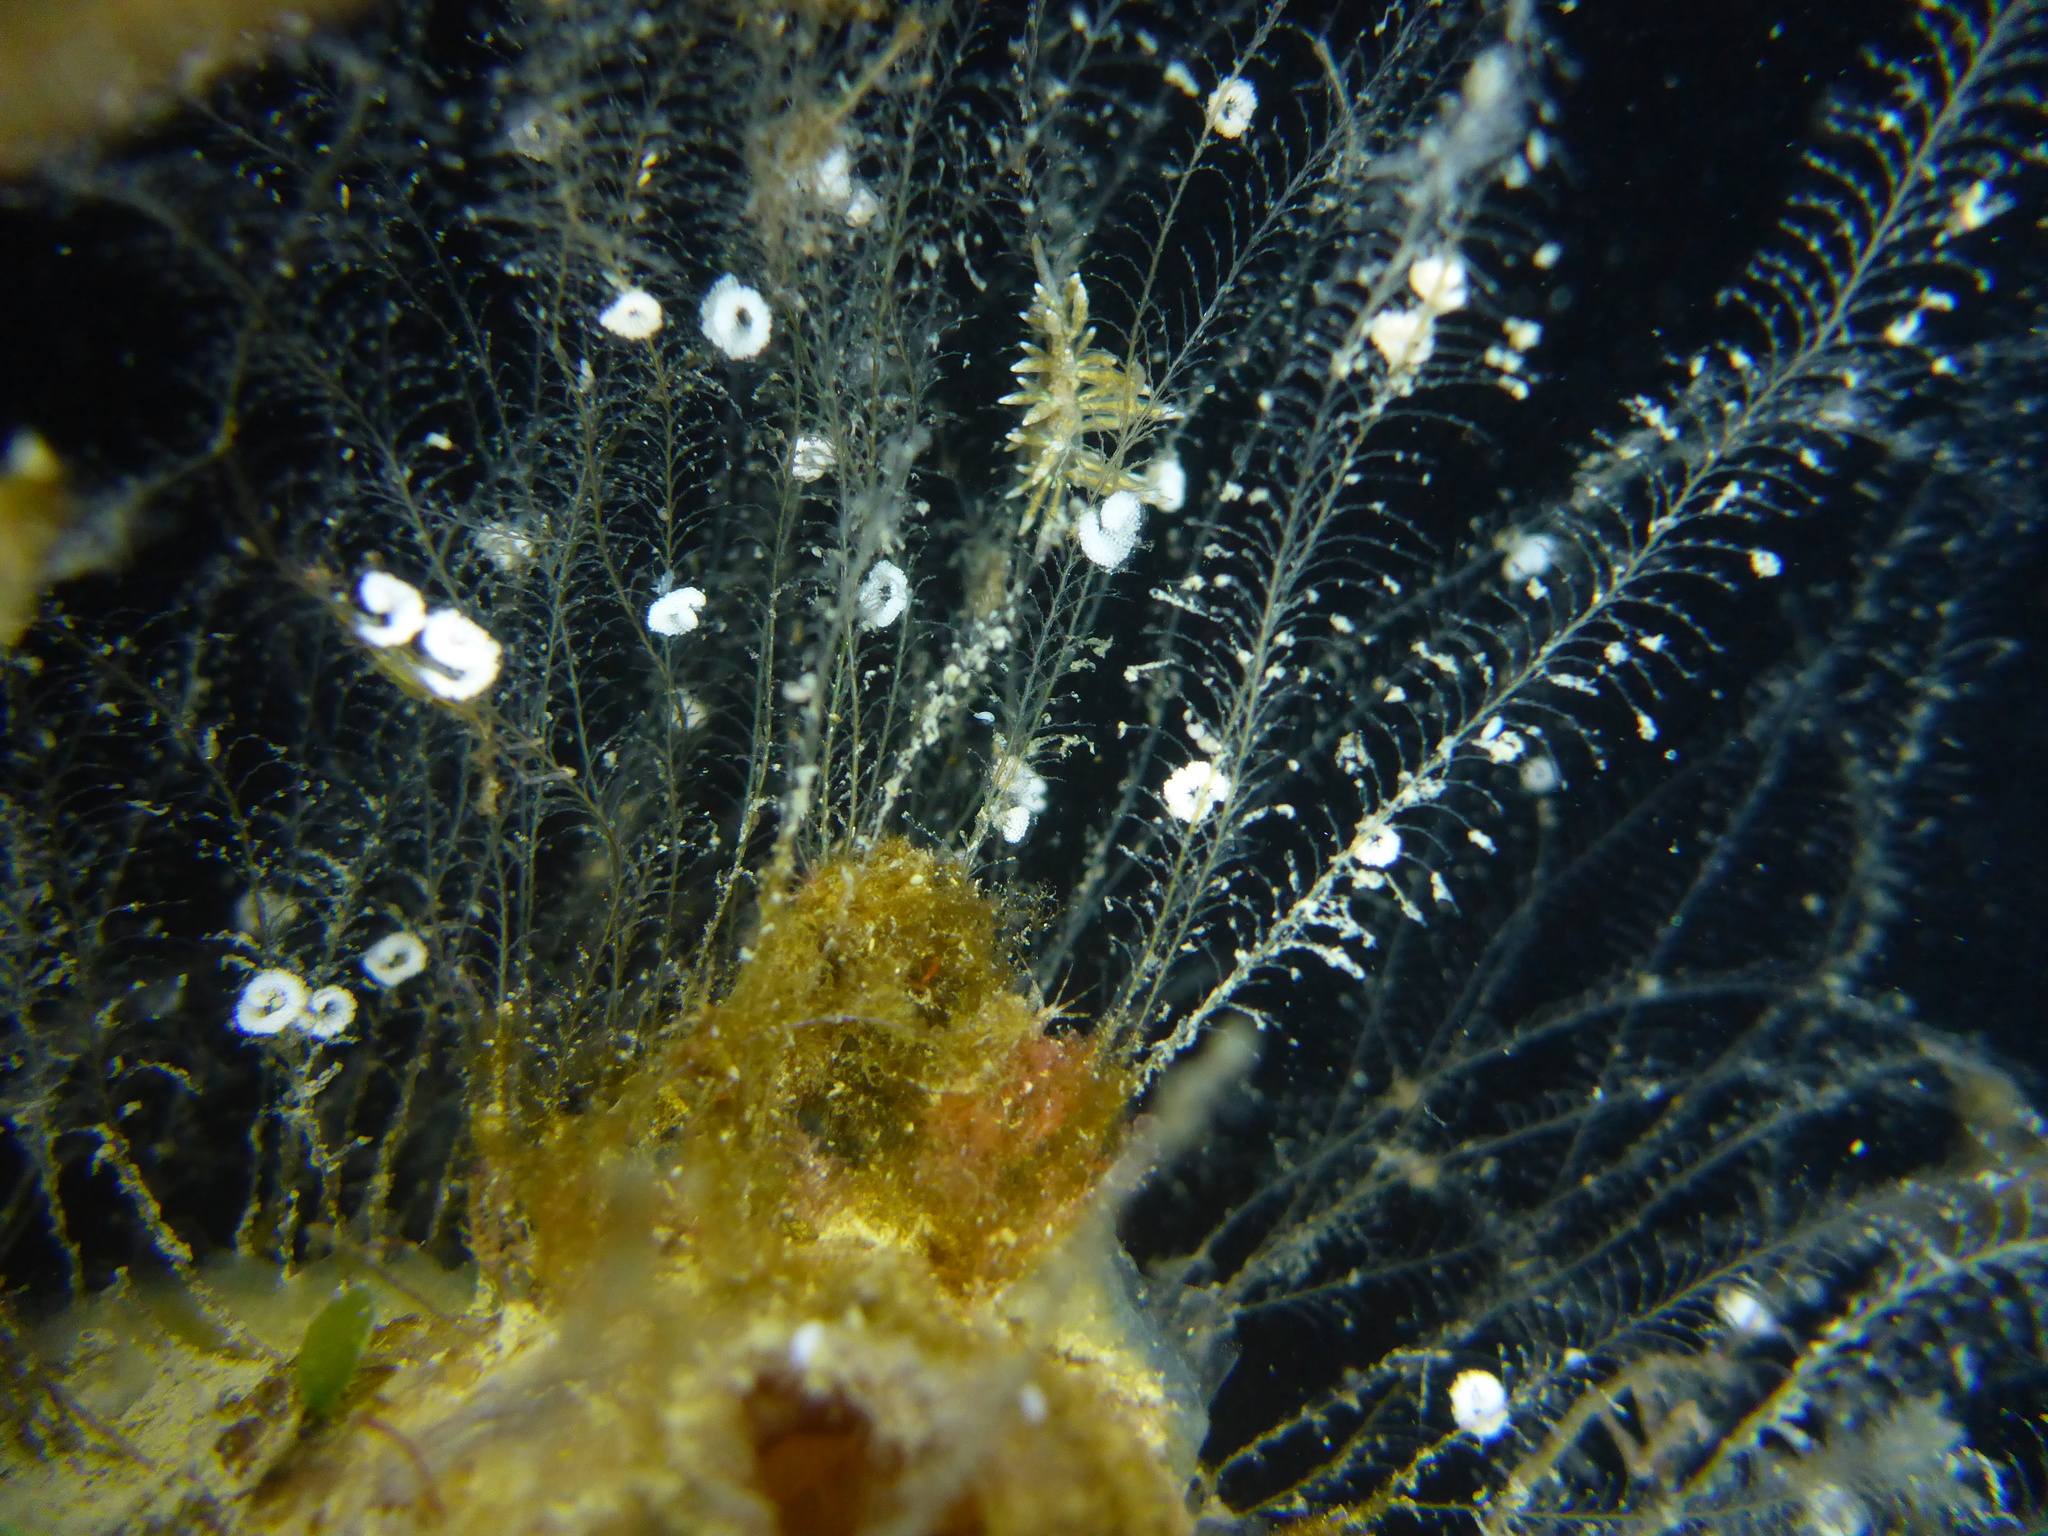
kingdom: Animalia
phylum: Mollusca
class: Gastropoda
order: Nudibranchia
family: Eubranchidae
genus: Eubranchus
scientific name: Eubranchus rustyus
